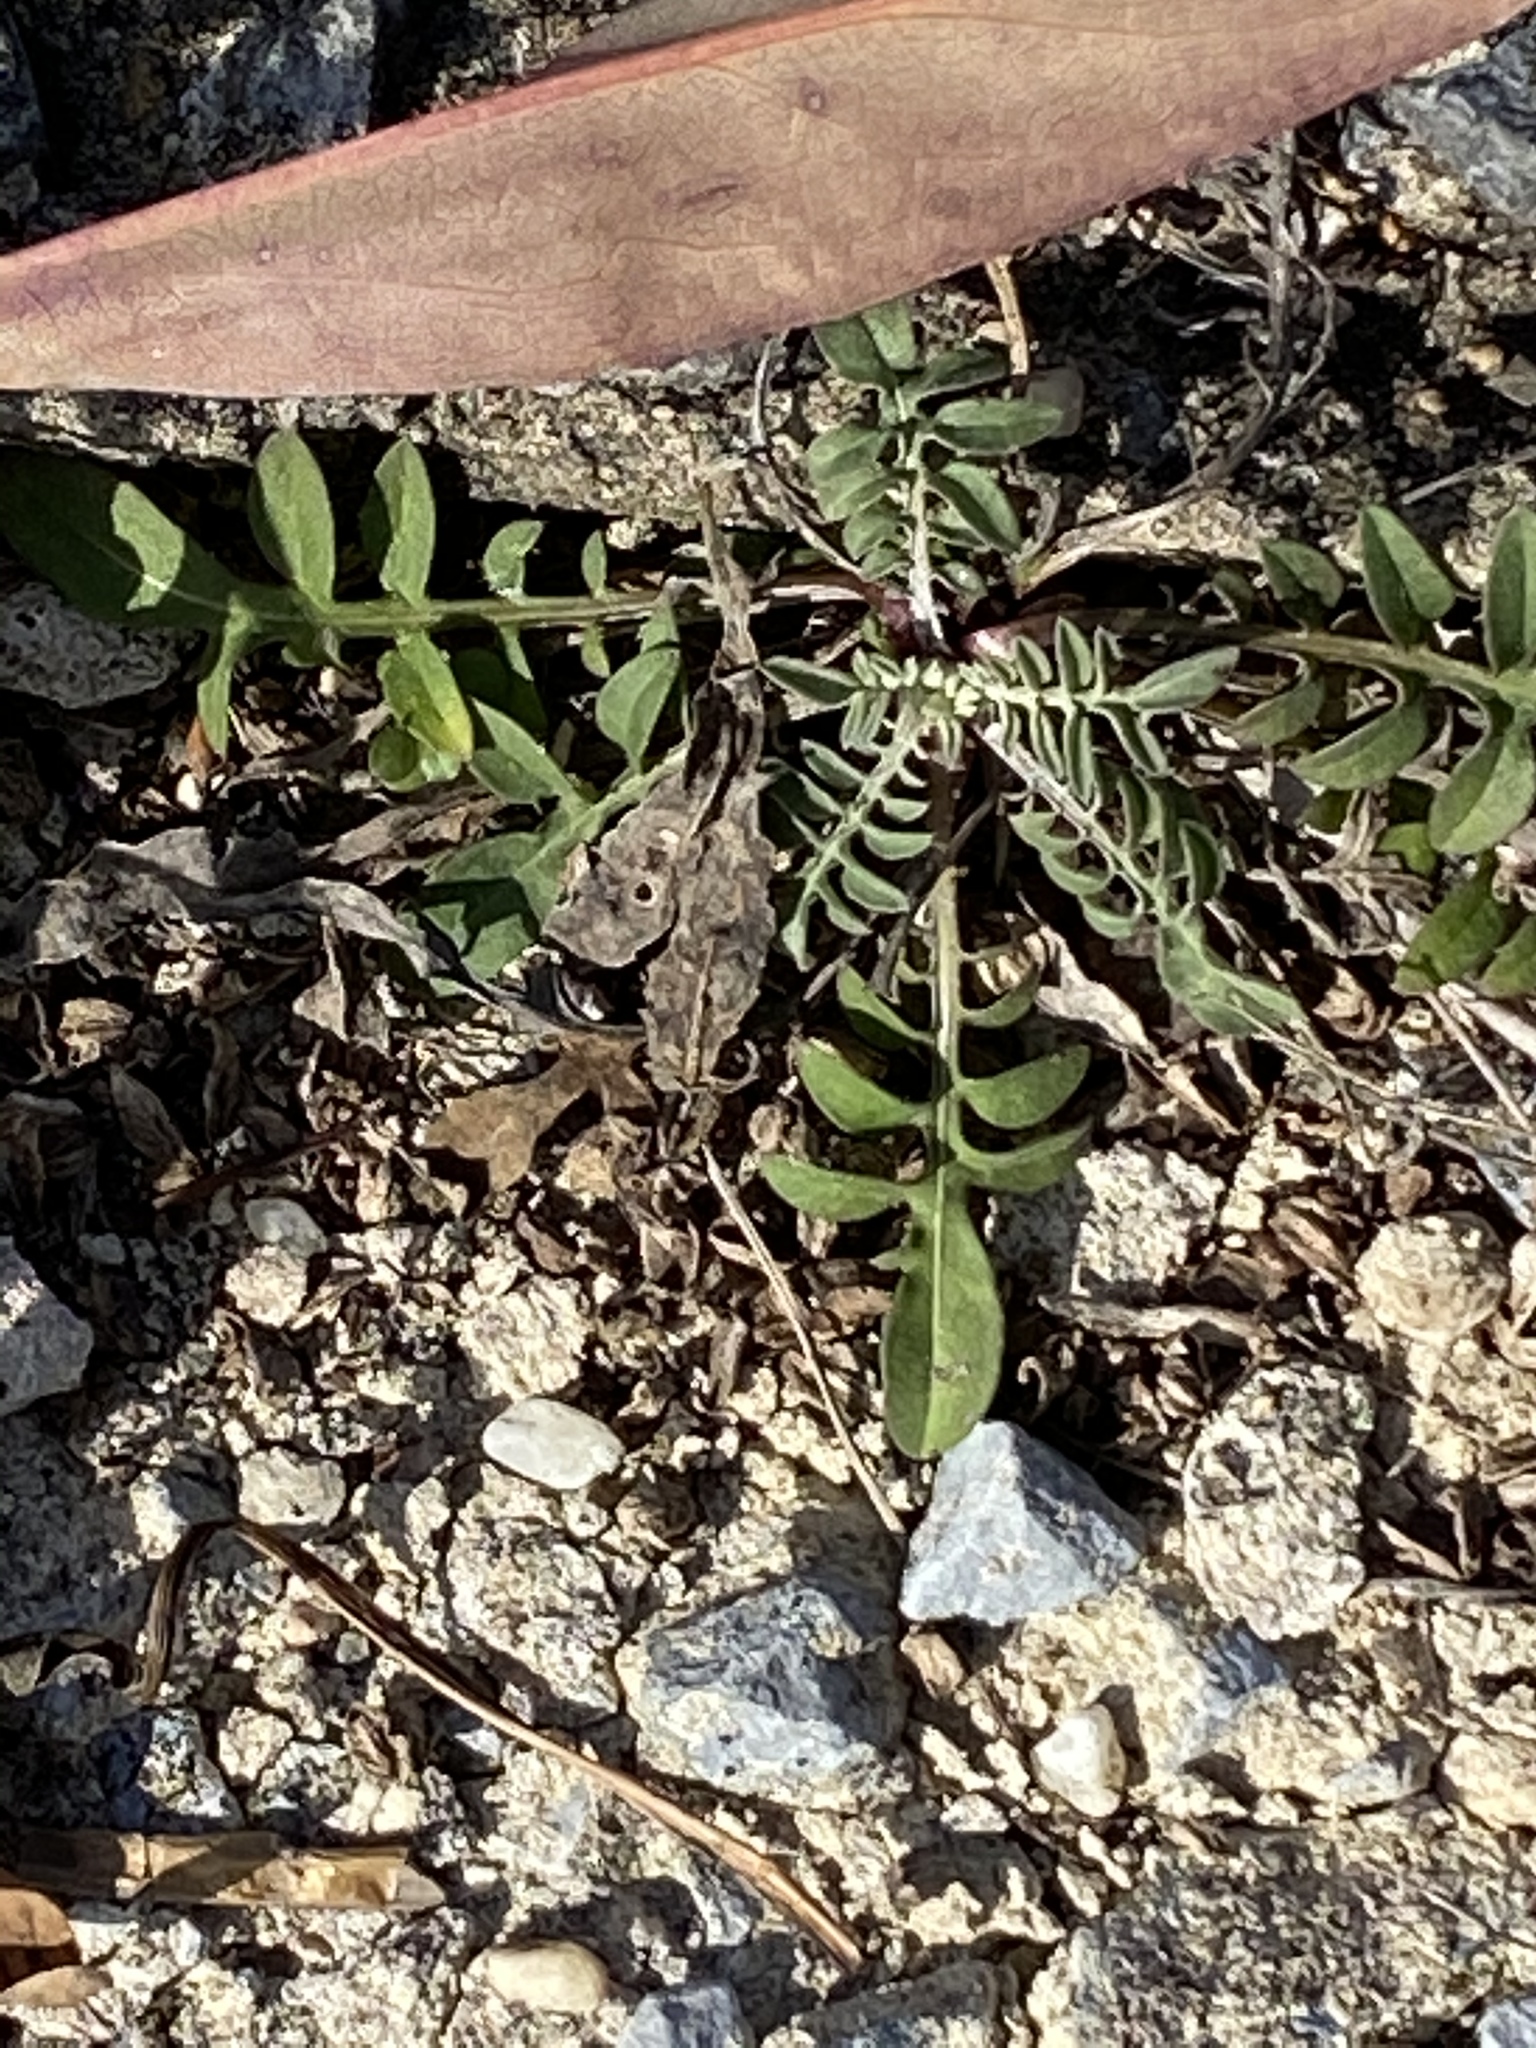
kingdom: Plantae
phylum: Tracheophyta
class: Magnoliopsida
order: Asterales
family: Asteraceae
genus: Centaurea
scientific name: Centaurea stoebe
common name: Spotted knapweed
